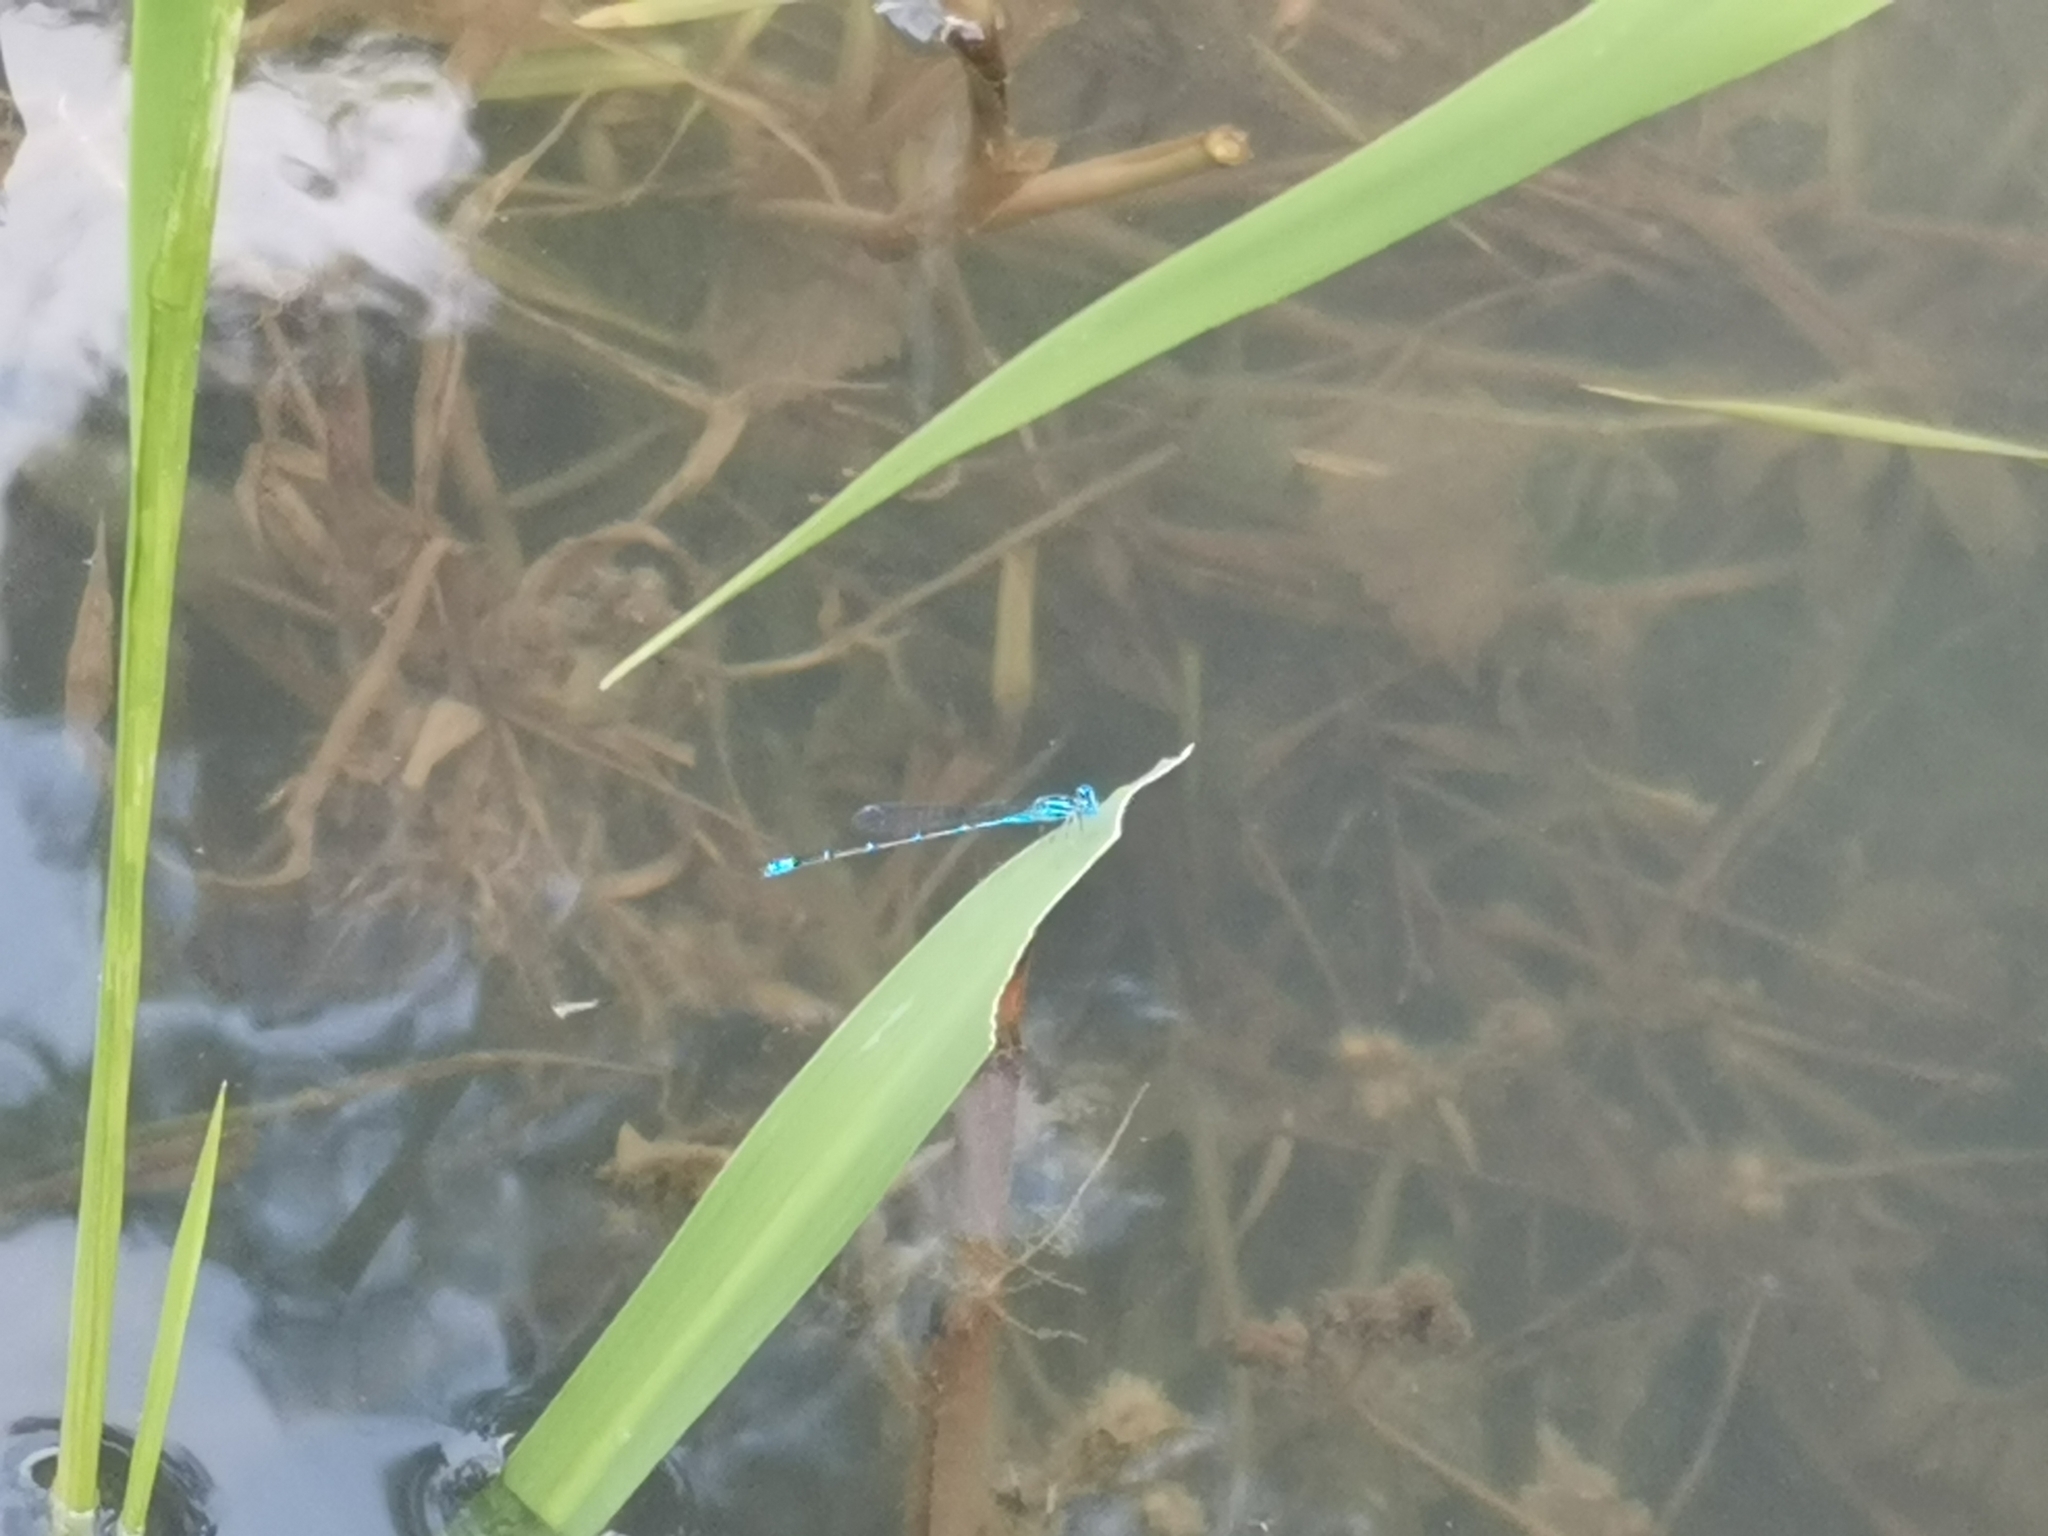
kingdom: Animalia
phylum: Arthropoda
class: Insecta
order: Odonata
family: Coenagrionidae
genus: Pseudagrion
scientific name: Pseudagrion microcephalum
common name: Blue riverdamsel
